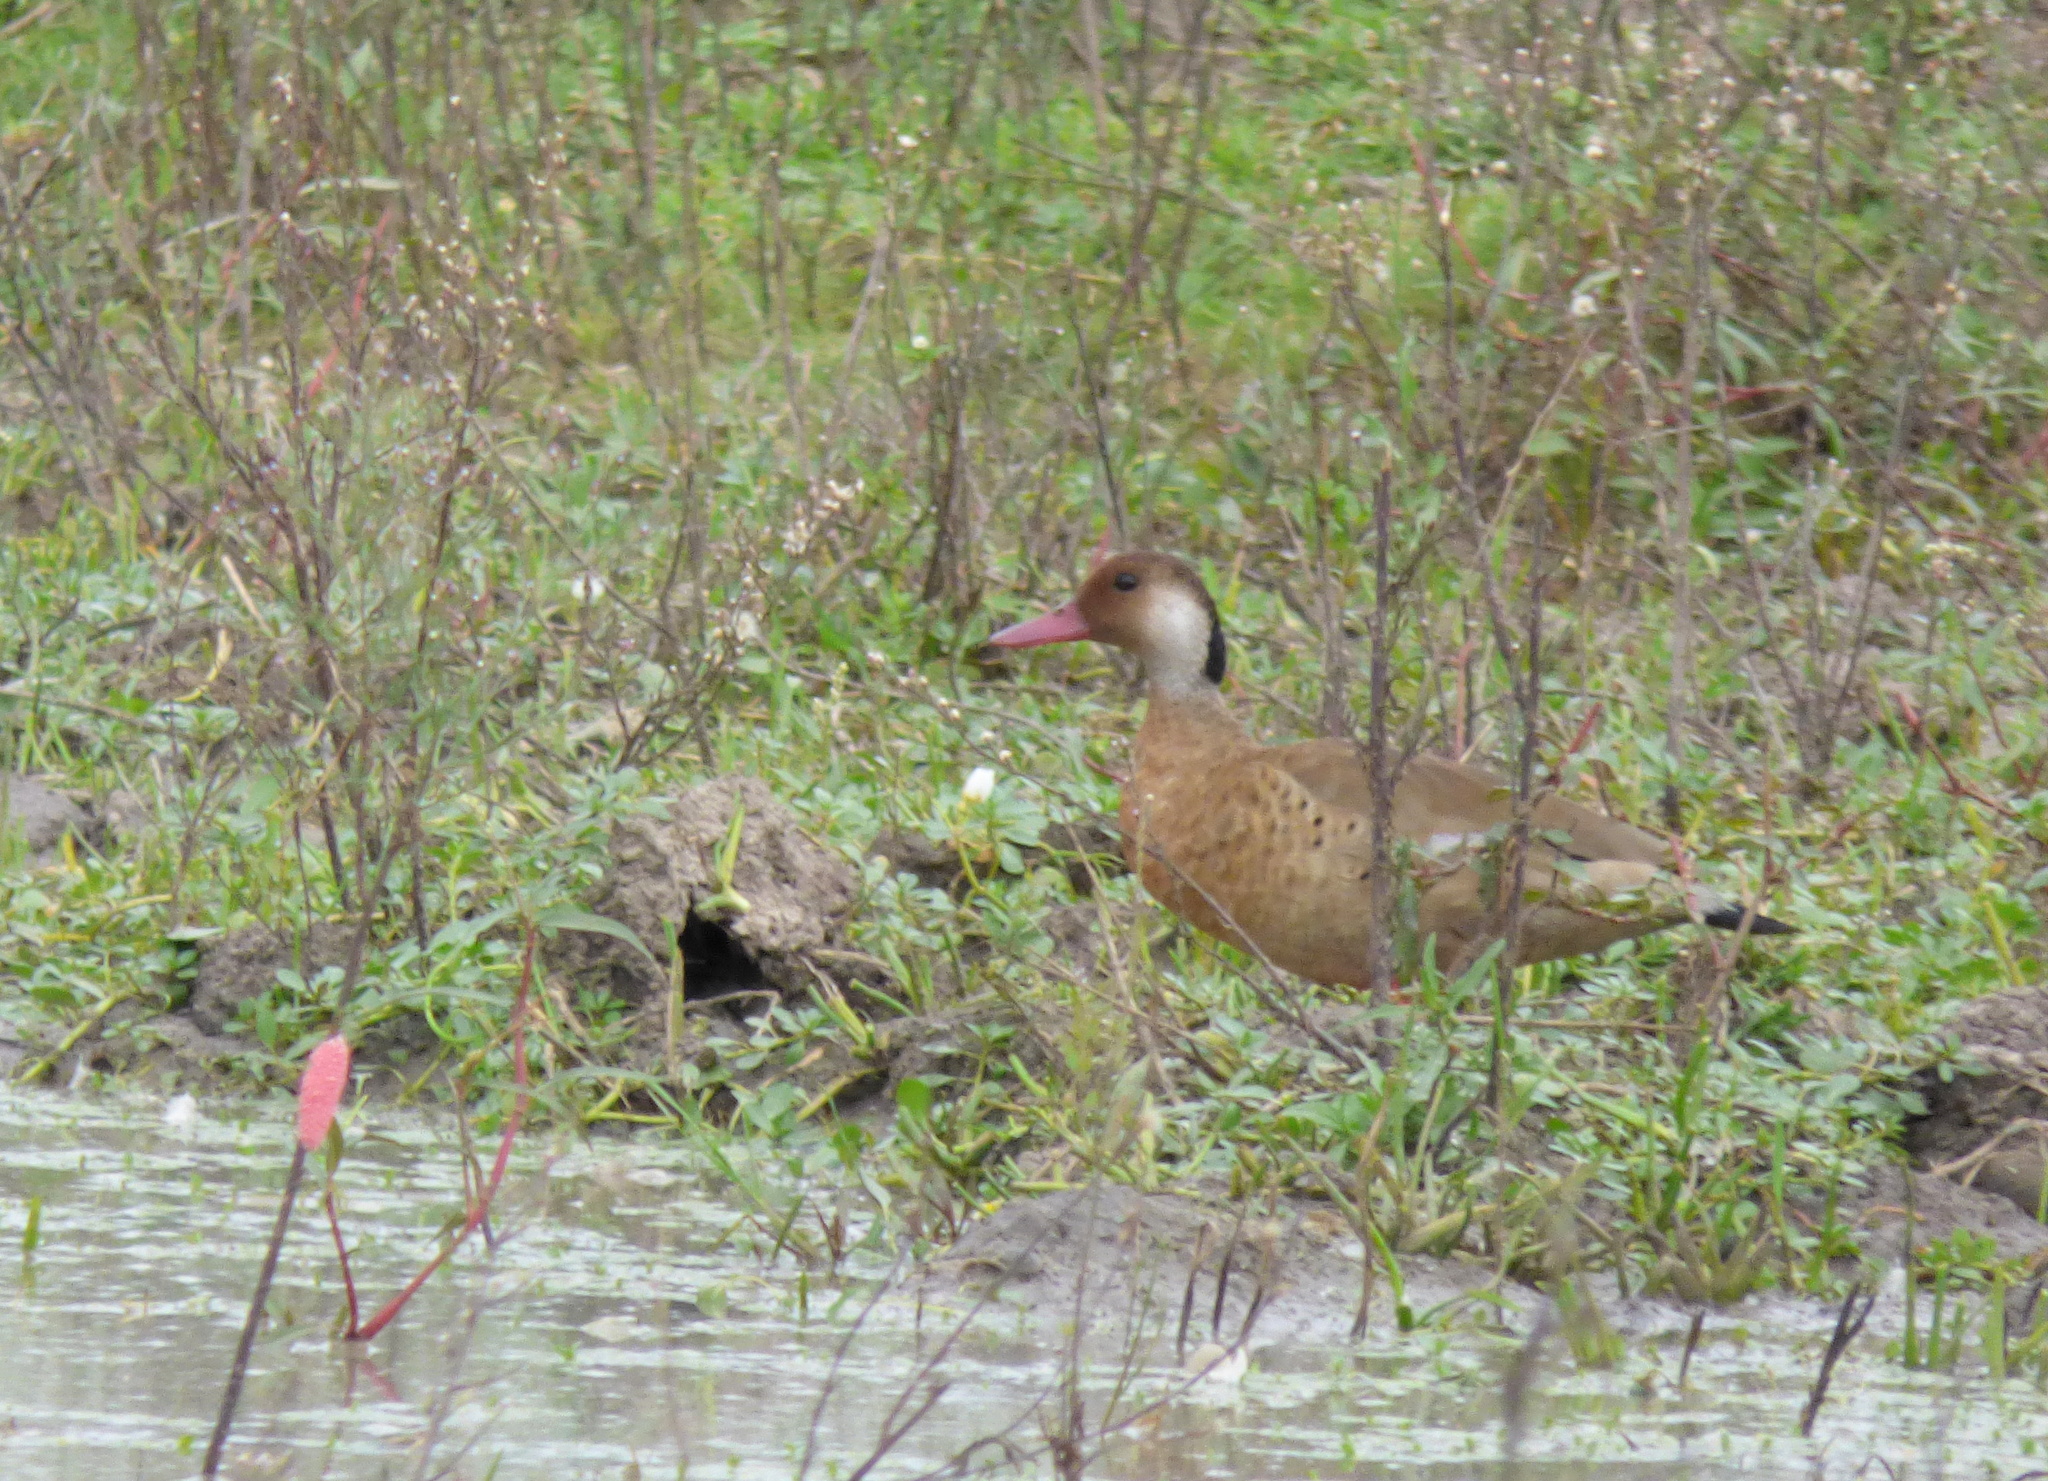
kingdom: Animalia
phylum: Chordata
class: Aves
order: Anseriformes
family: Anatidae
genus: Amazonetta
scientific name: Amazonetta brasiliensis
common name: Brazilian teal
